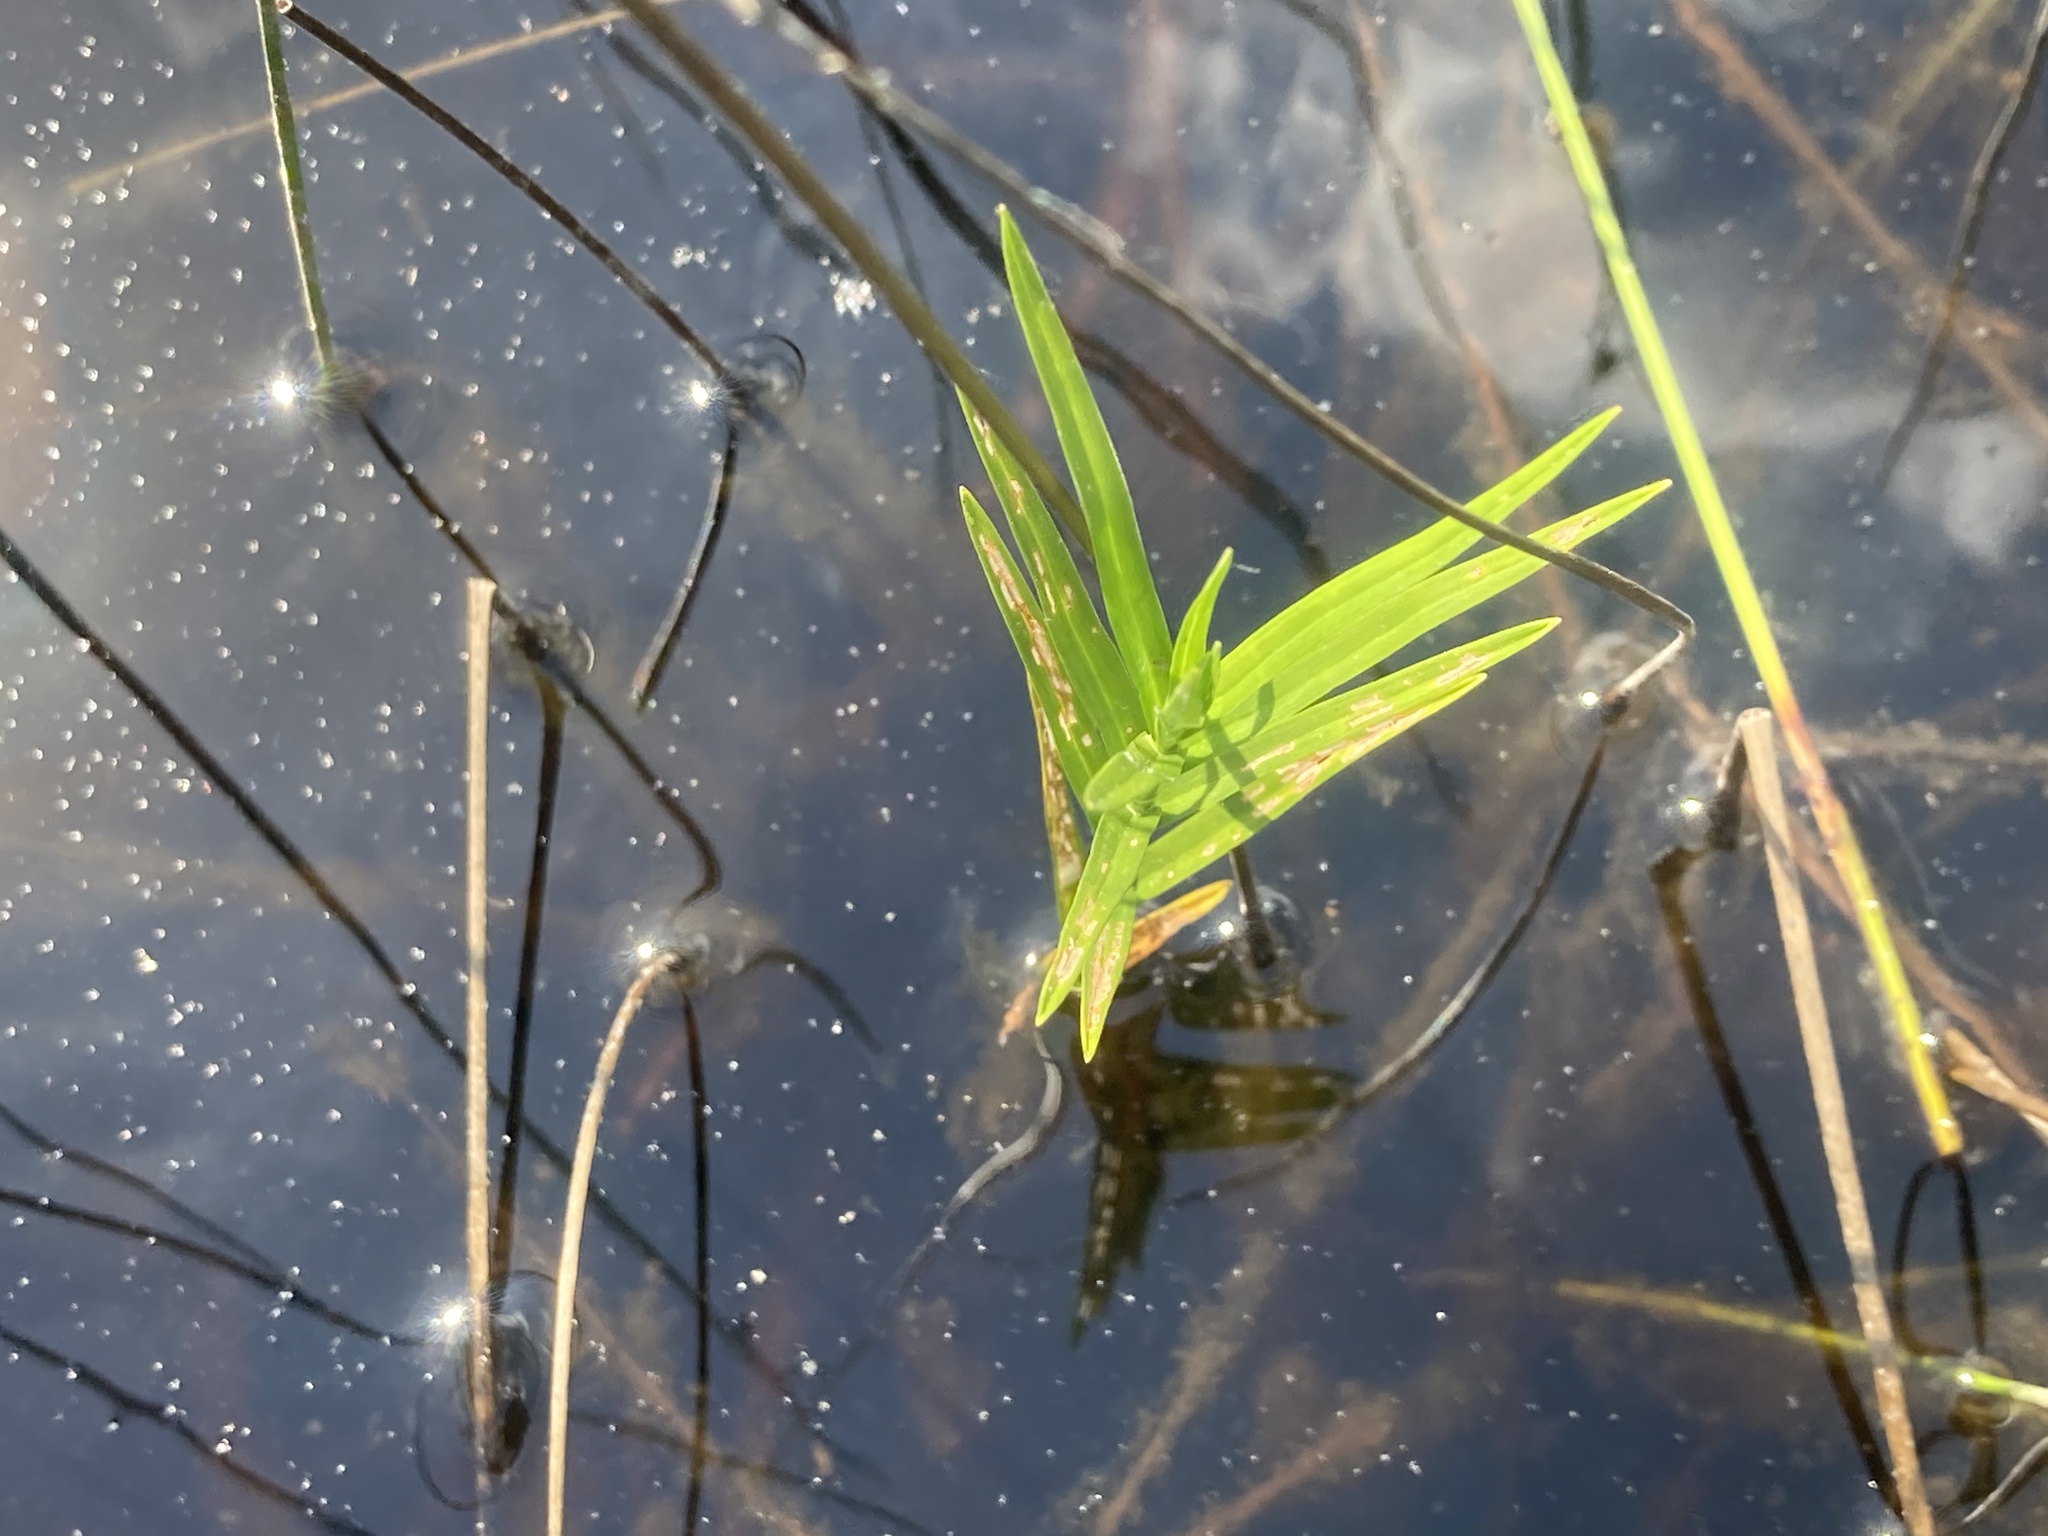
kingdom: Plantae
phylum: Tracheophyta
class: Liliopsida
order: Poales
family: Cyperaceae
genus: Dulichium
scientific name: Dulichium arundinaceum
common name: Three-way sedge
